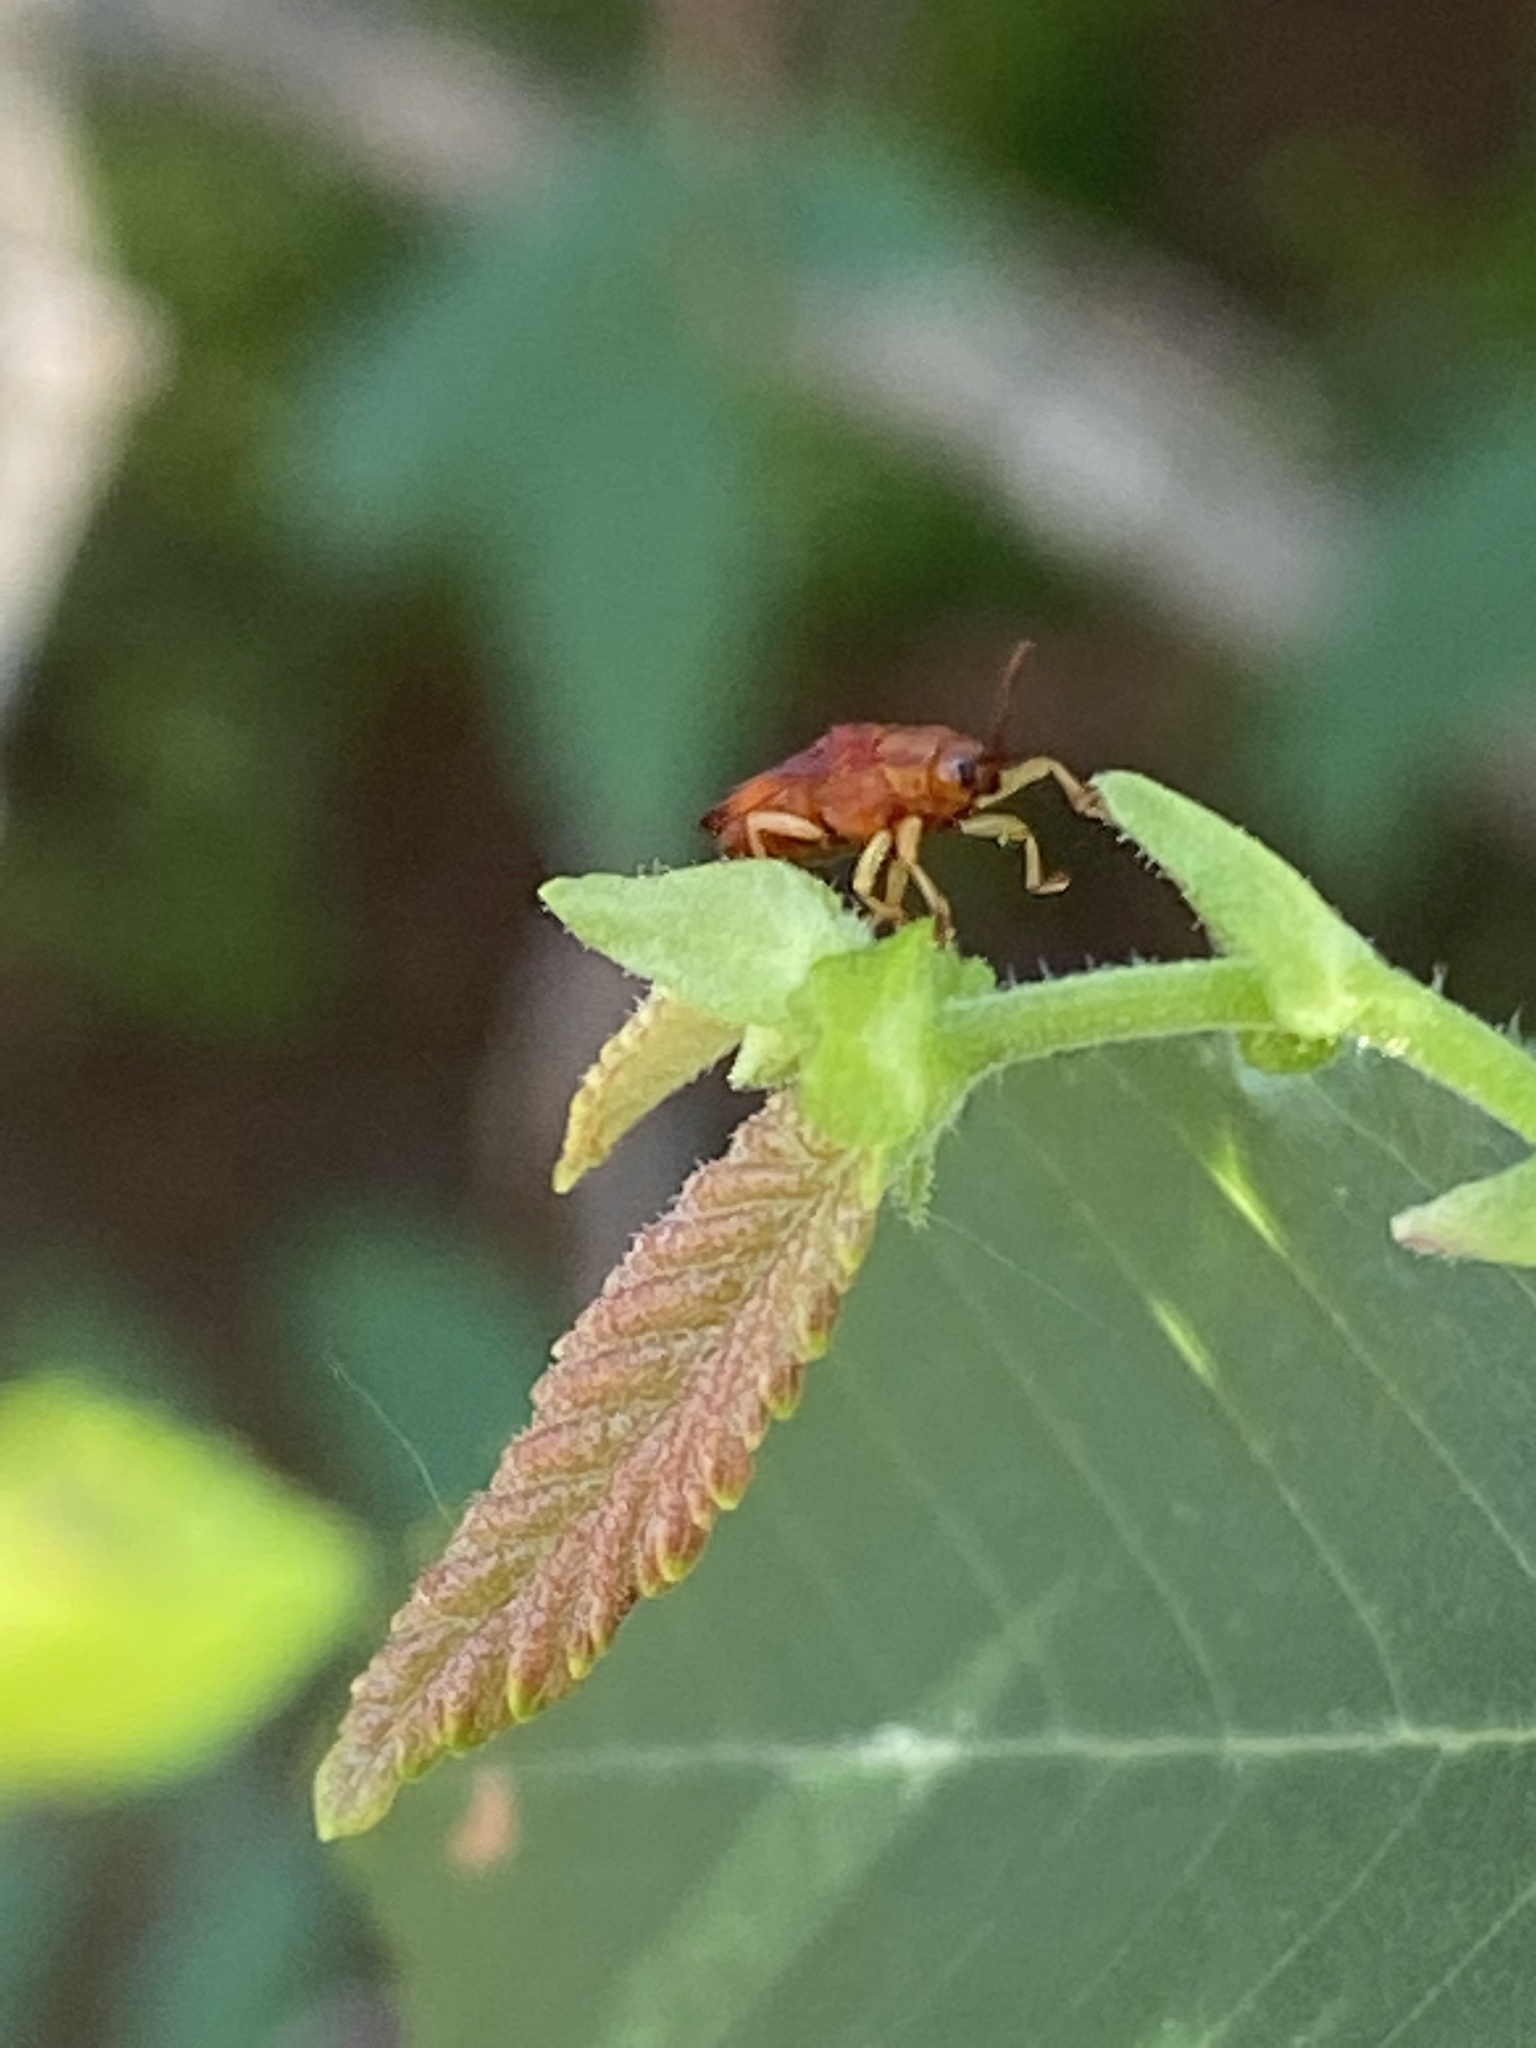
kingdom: Animalia
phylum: Arthropoda
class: Insecta
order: Coleoptera
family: Chrysomelidae
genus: Baliosus
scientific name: Baliosus nervosus
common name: Basswood leaf miner
